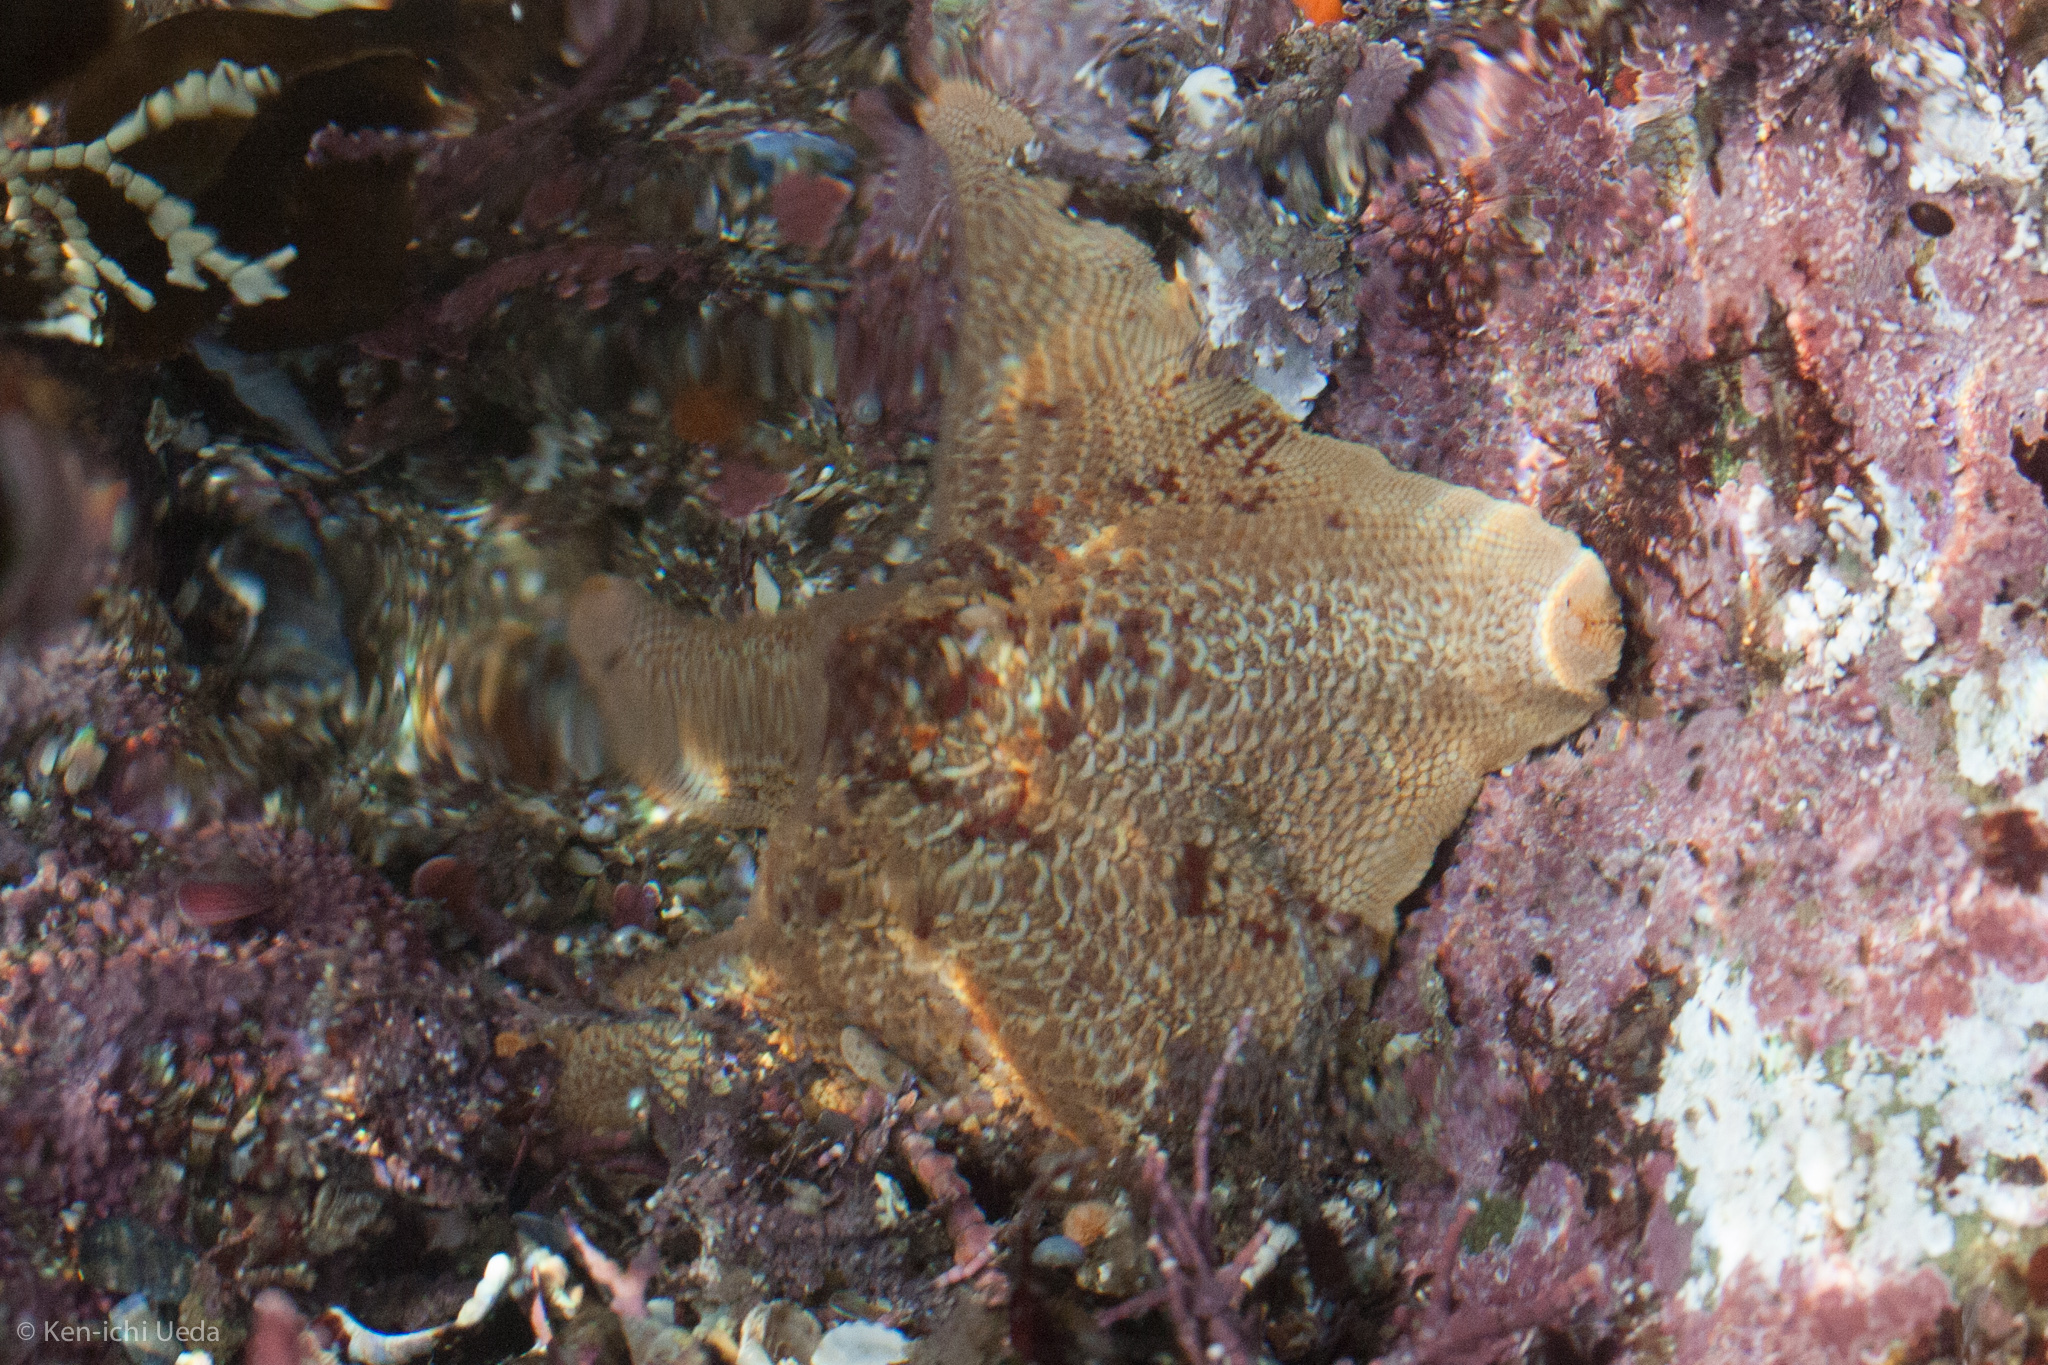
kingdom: Animalia
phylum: Echinodermata
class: Asteroidea
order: Valvatida
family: Asterinidae
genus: Patiria
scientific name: Patiria miniata
